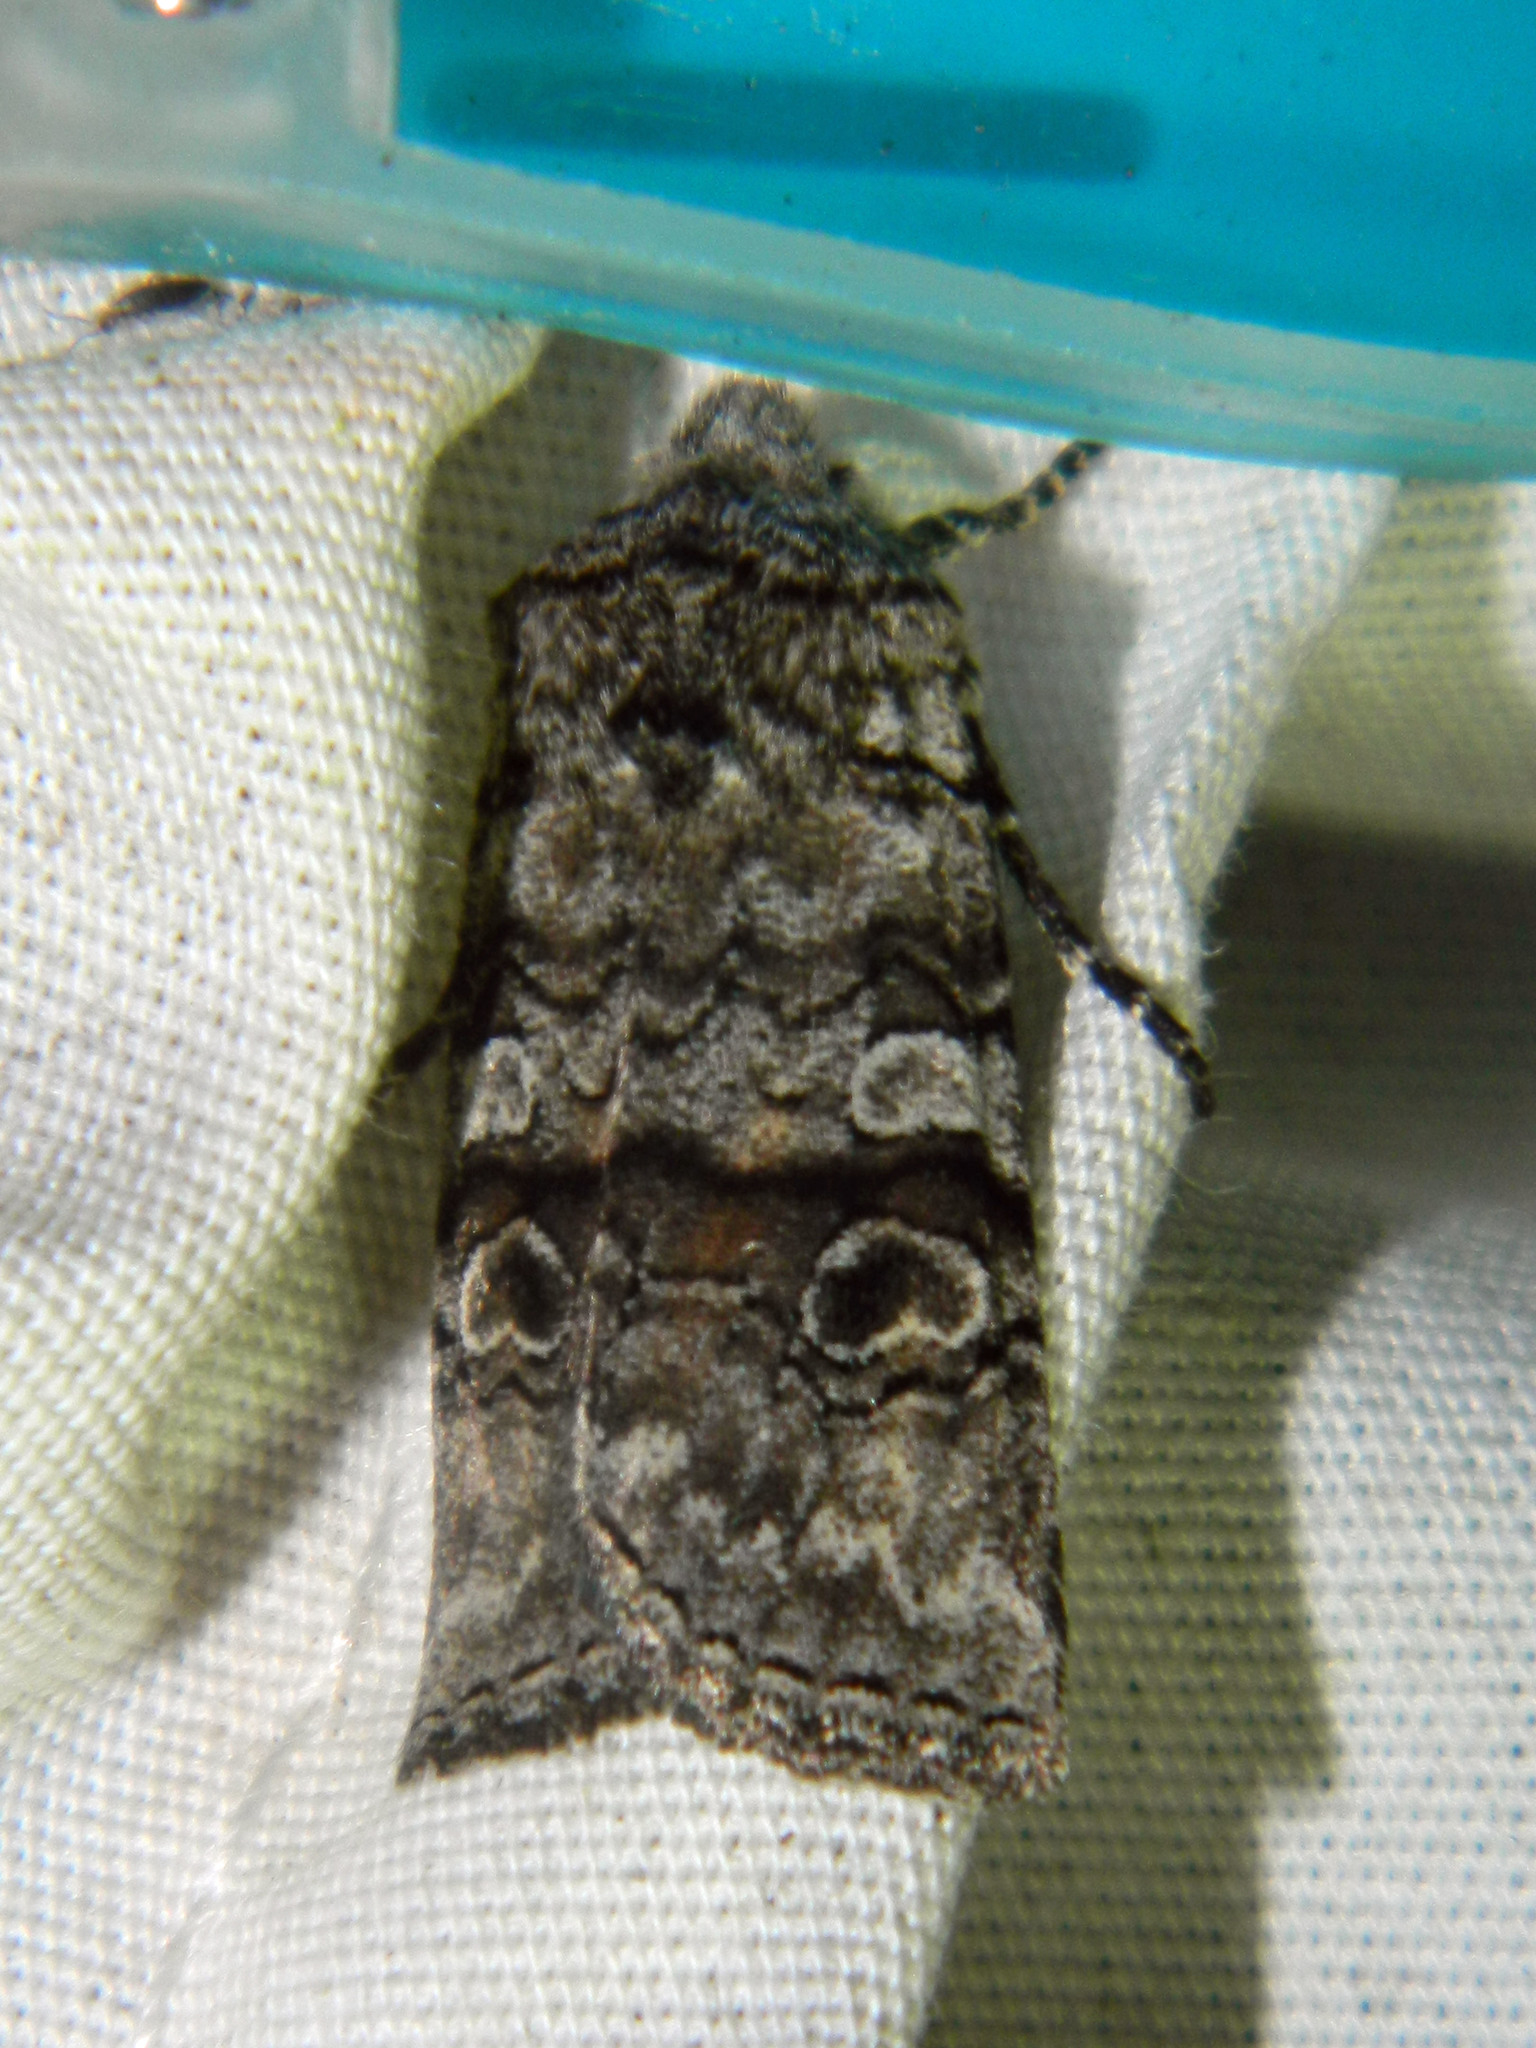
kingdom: Animalia
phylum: Arthropoda
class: Insecta
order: Lepidoptera
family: Noctuidae
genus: Litholomia
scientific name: Litholomia napaea
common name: False pinion moth
